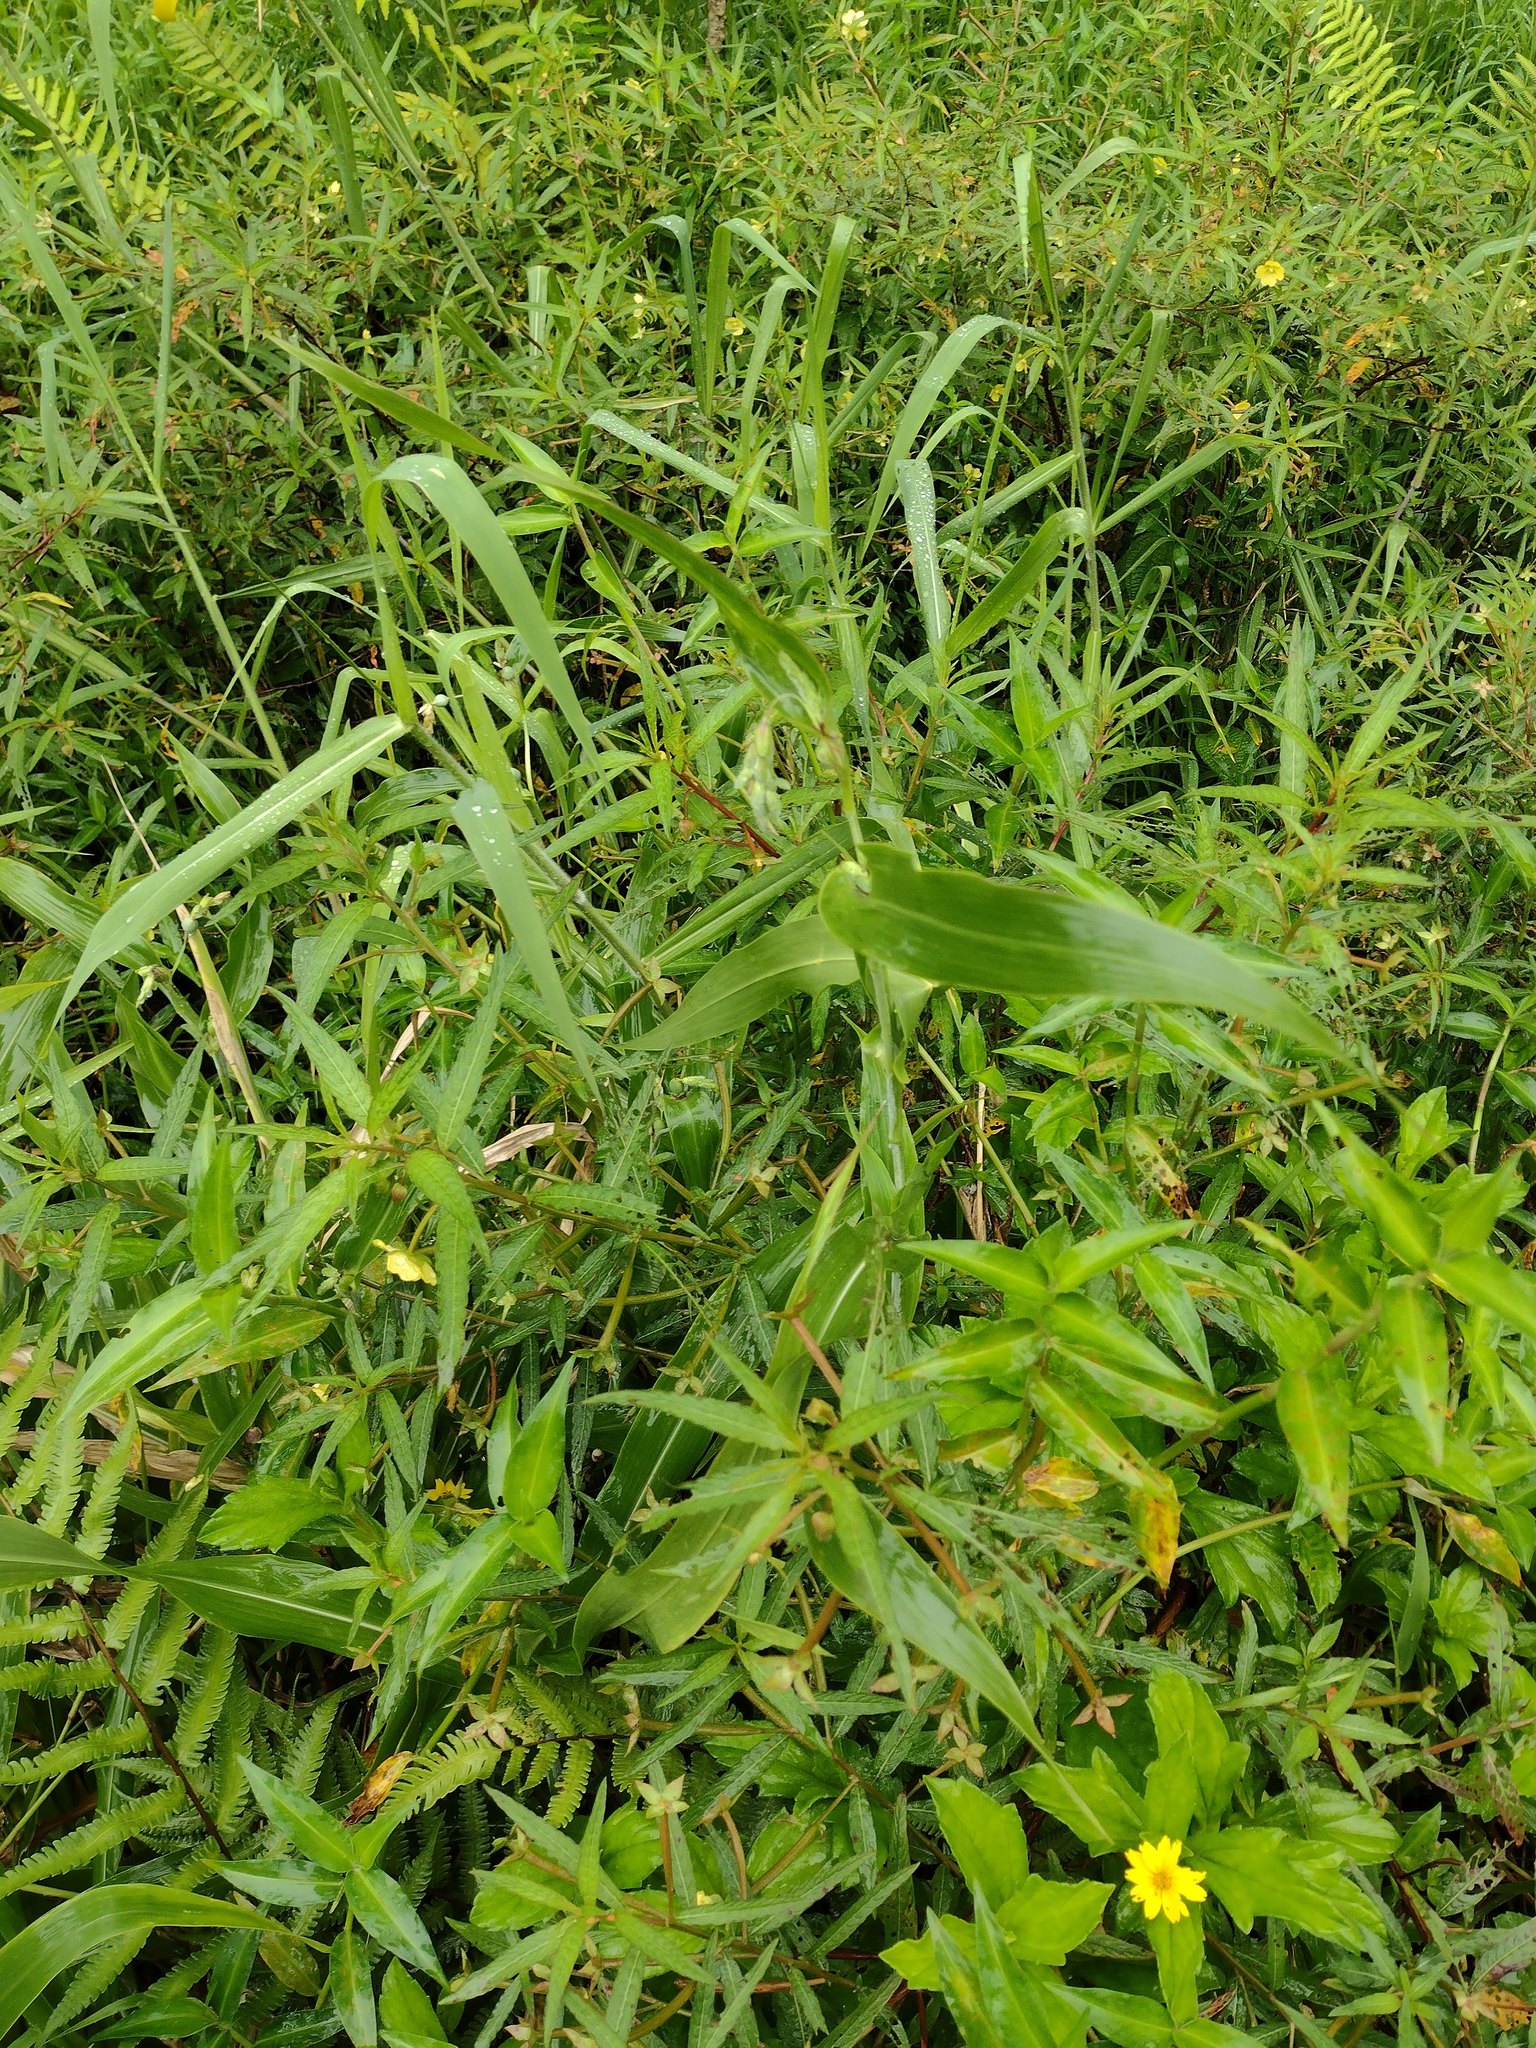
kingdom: Plantae
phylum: Tracheophyta
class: Liliopsida
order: Poales
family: Poaceae
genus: Coix
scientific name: Coix lacryma-jobi
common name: Job's tears
